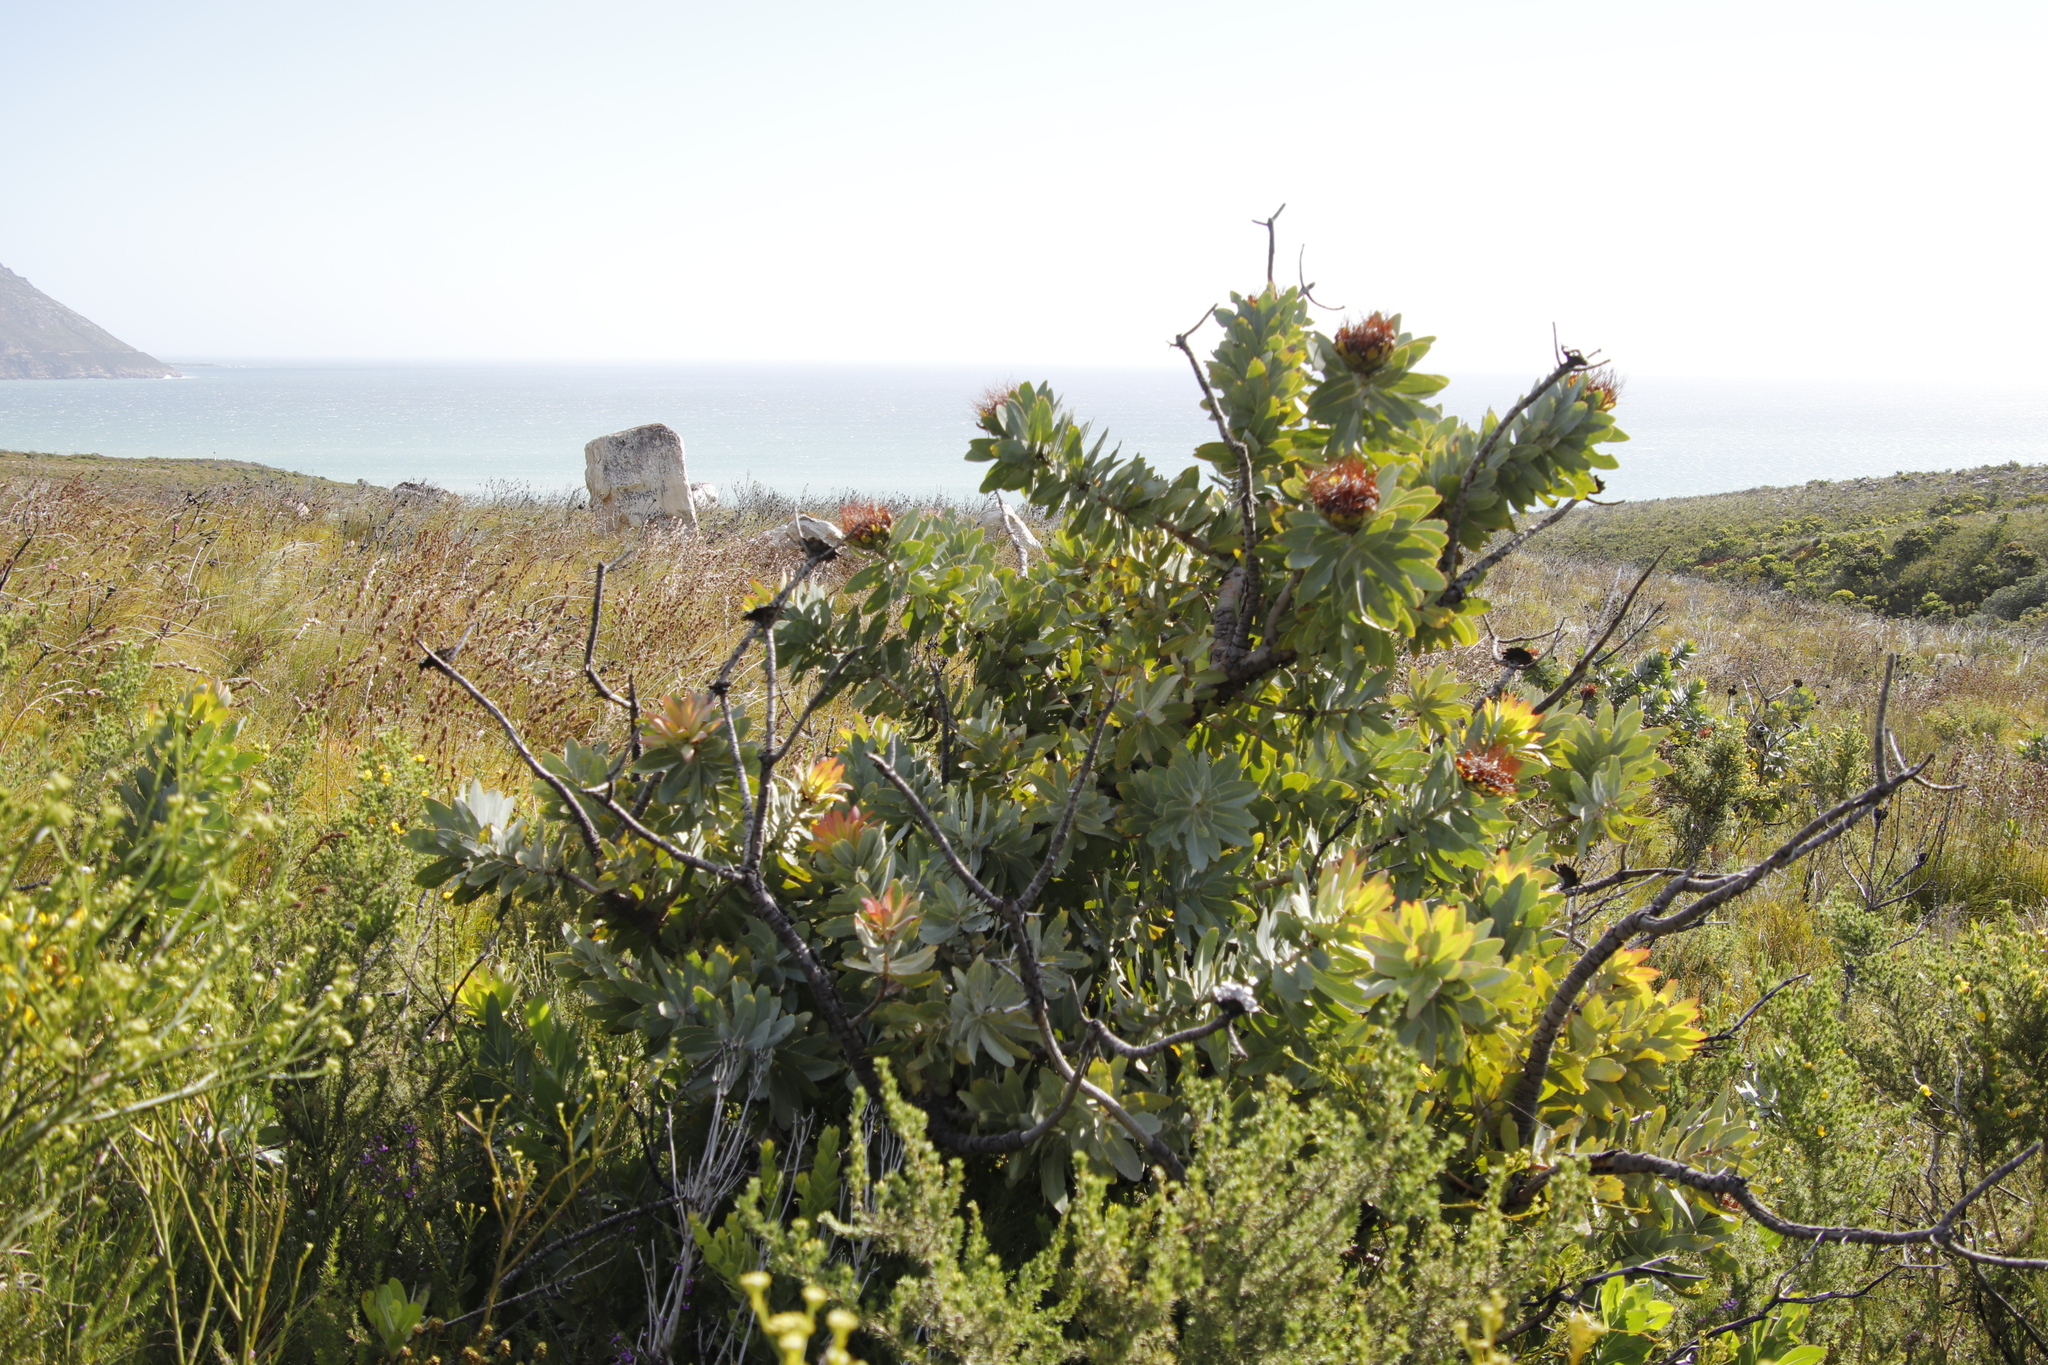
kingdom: Plantae
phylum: Tracheophyta
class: Magnoliopsida
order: Proteales
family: Proteaceae
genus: Protea
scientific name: Protea nitida
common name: Tree protea
